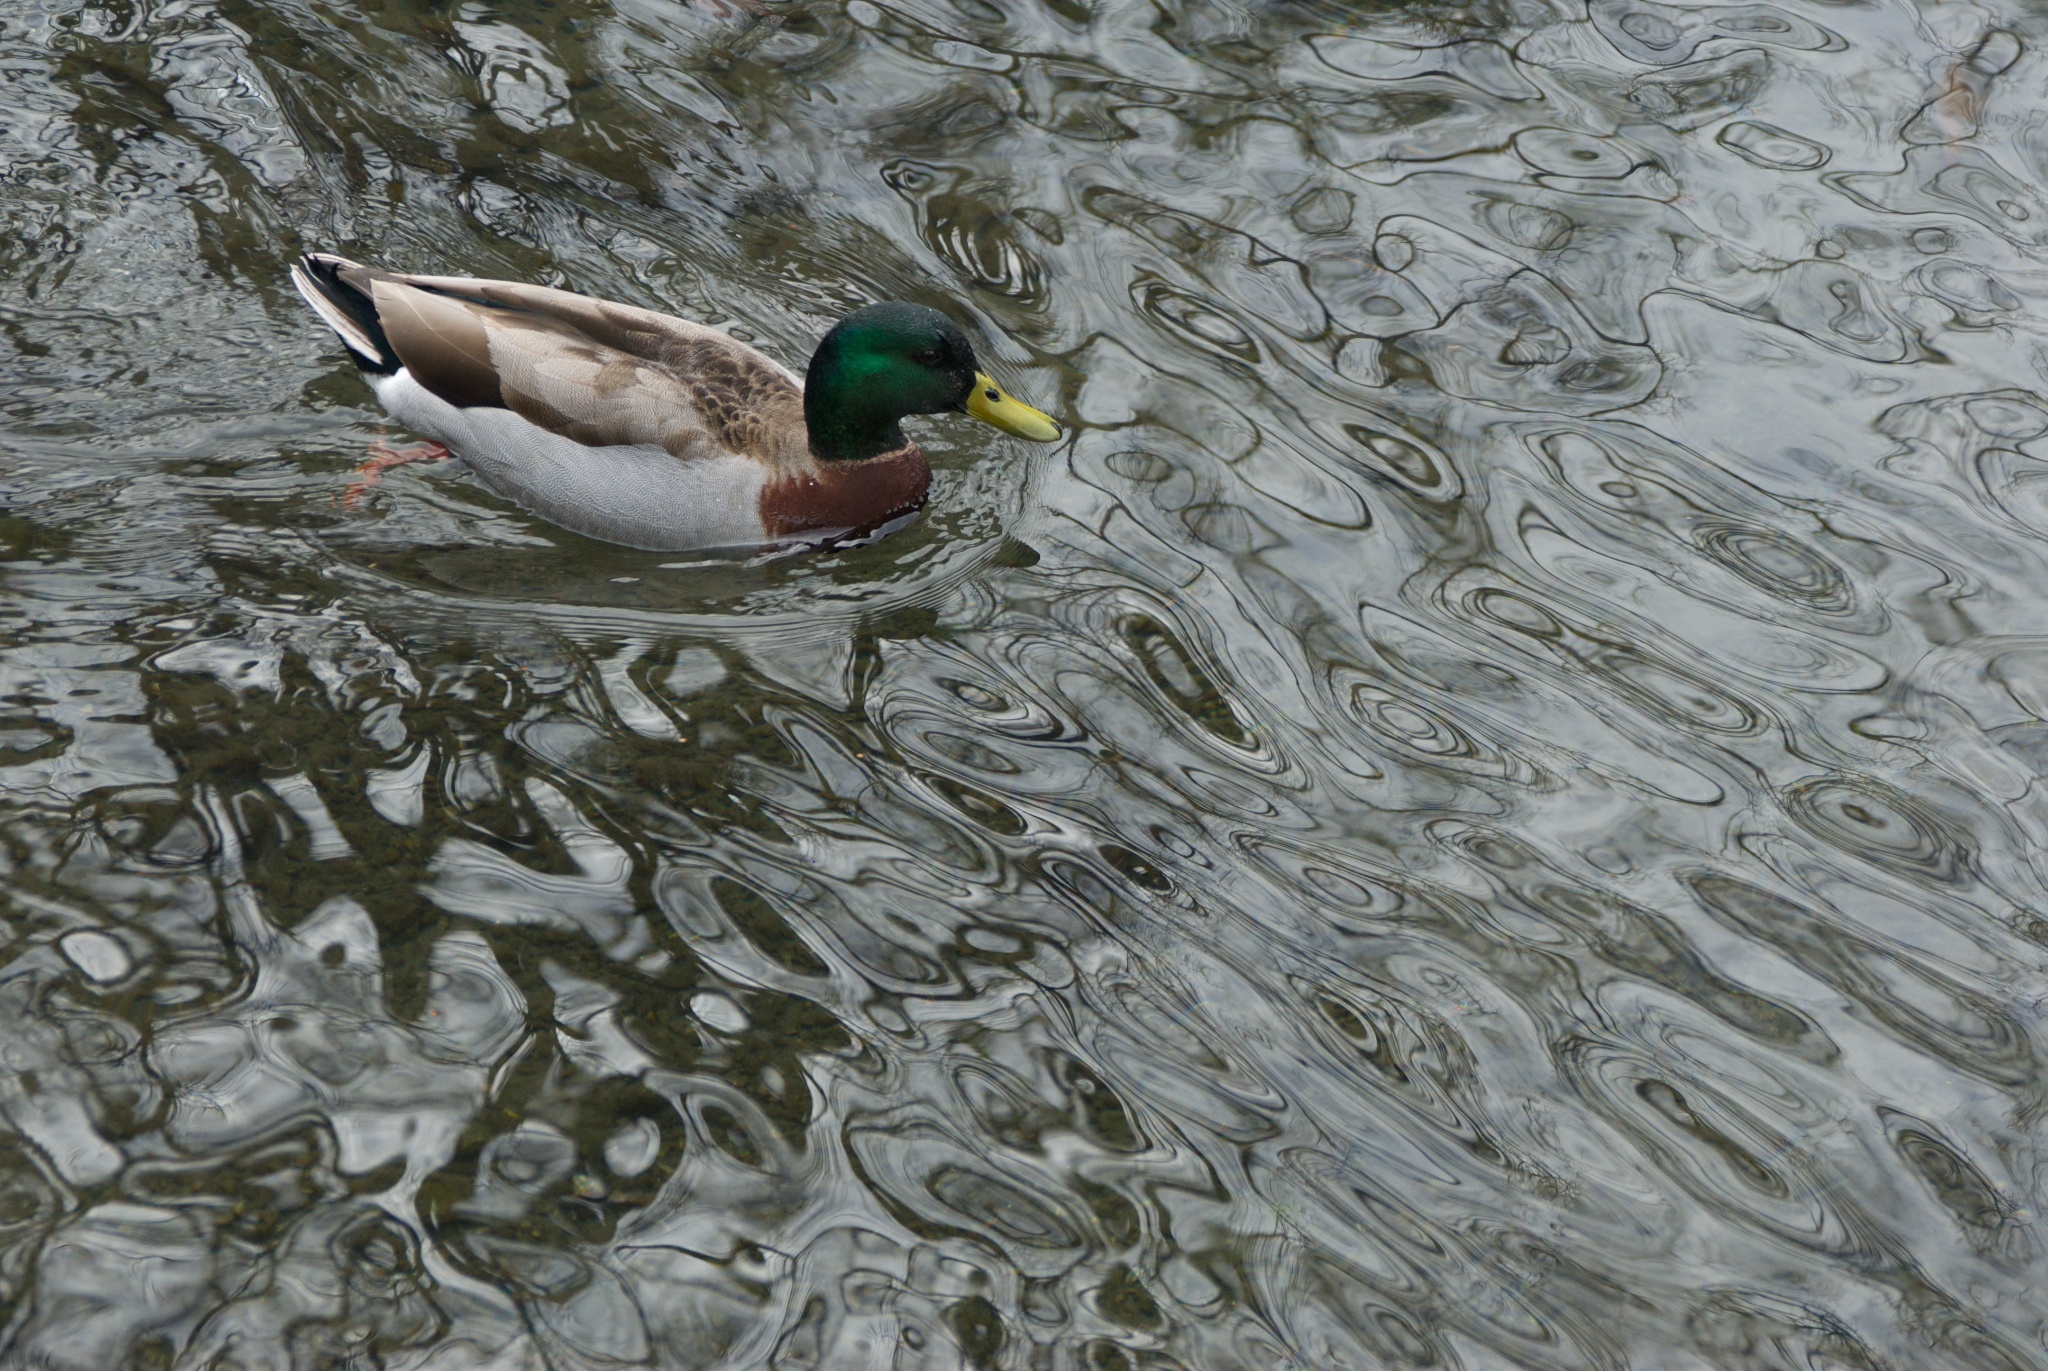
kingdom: Animalia
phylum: Chordata
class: Aves
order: Anseriformes
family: Anatidae
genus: Anas
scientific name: Anas platyrhynchos
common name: Mallard
